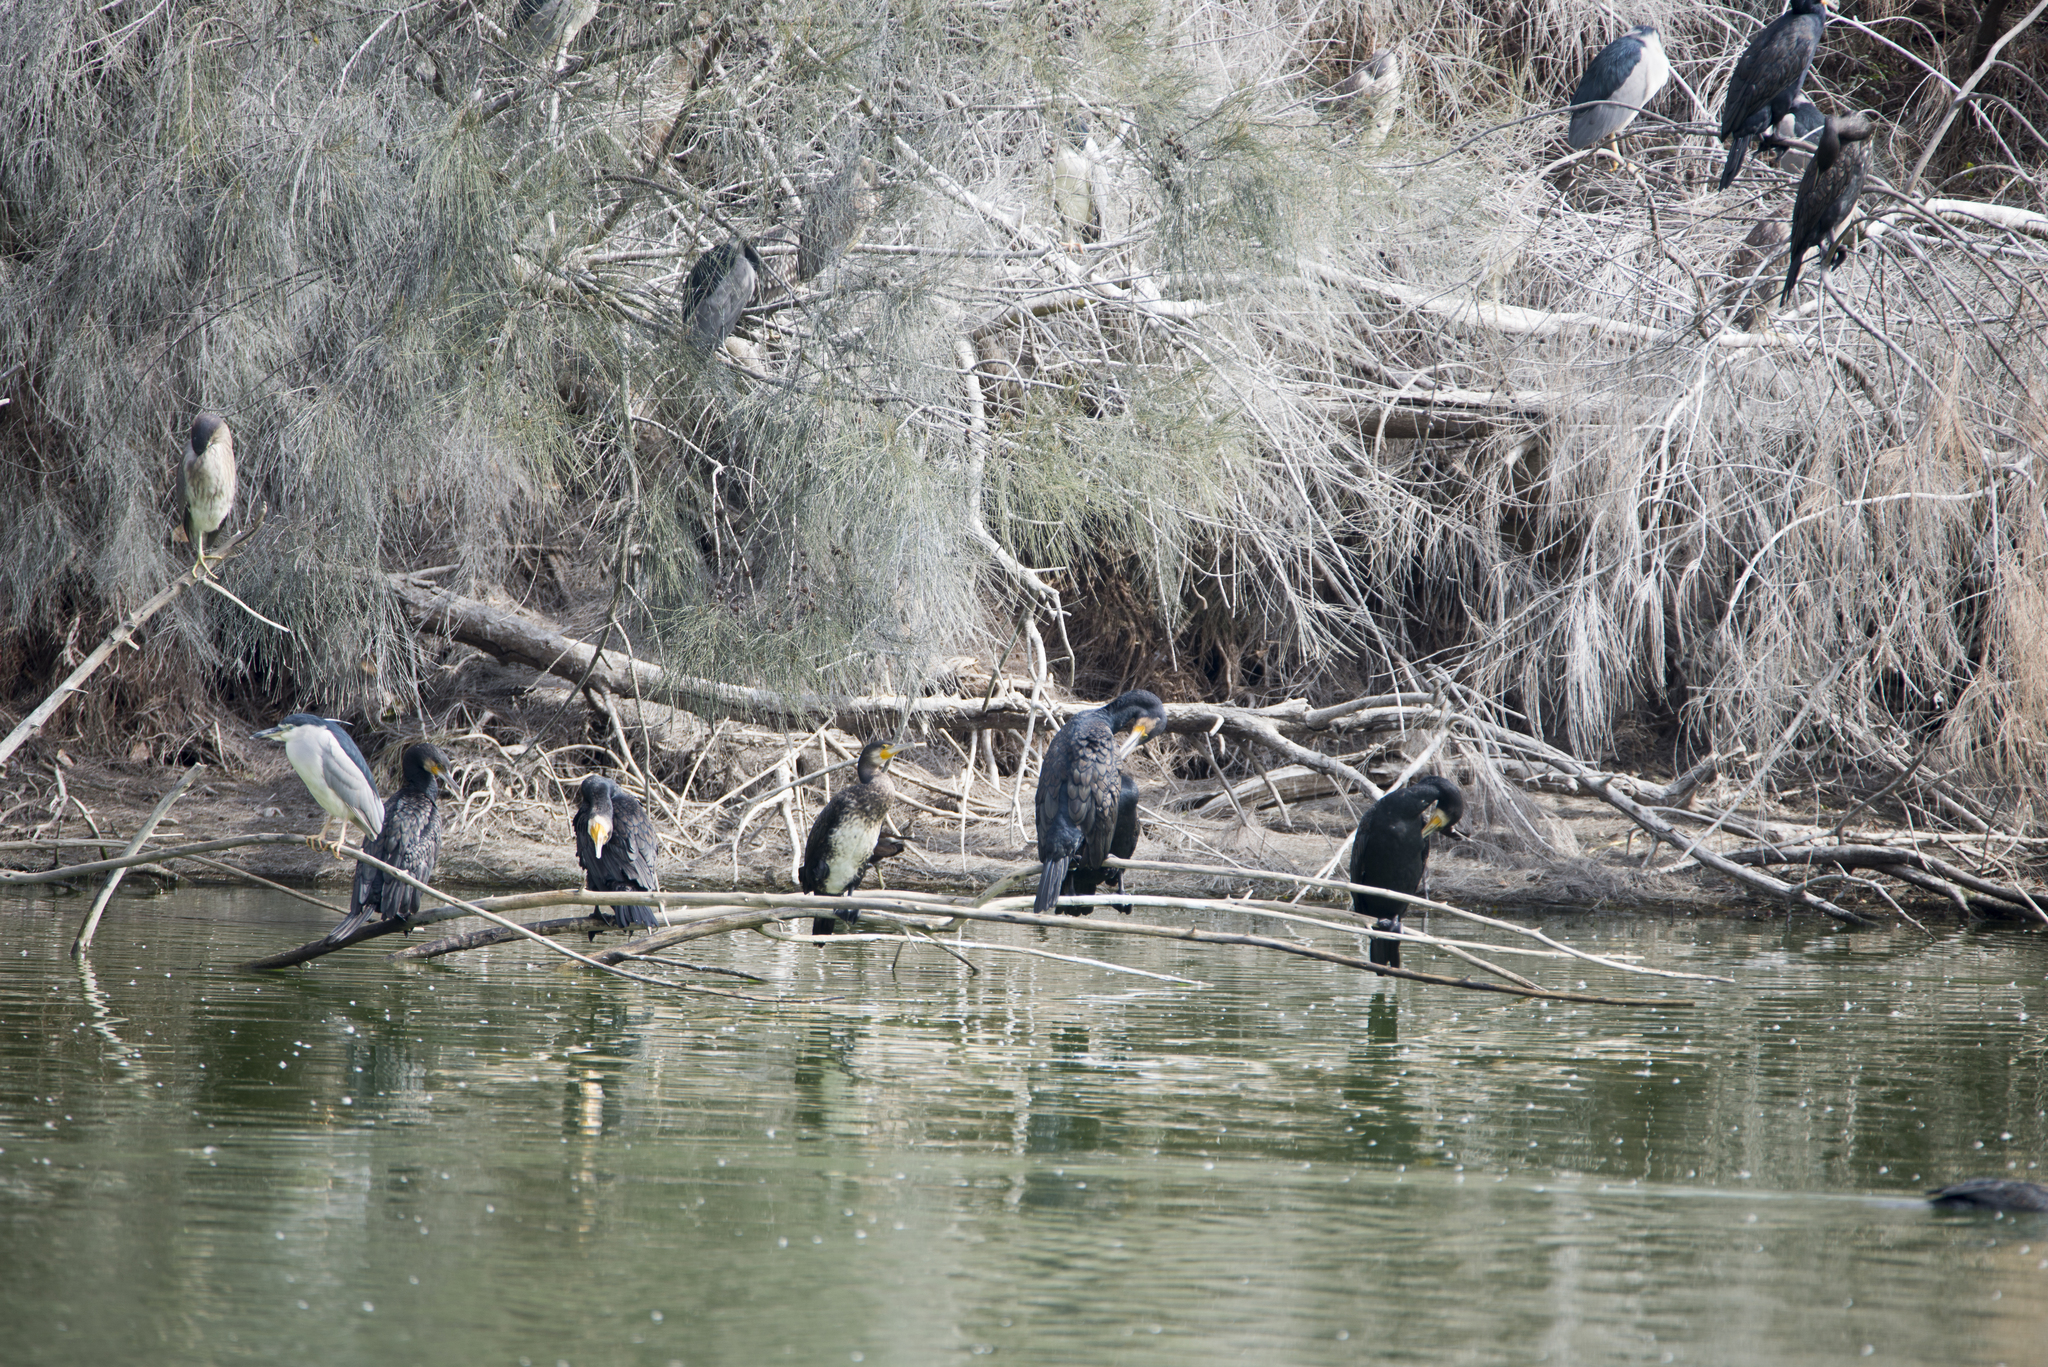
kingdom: Animalia
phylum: Chordata
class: Aves
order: Suliformes
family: Phalacrocoracidae
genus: Phalacrocorax
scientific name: Phalacrocorax carbo
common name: Great cormorant
